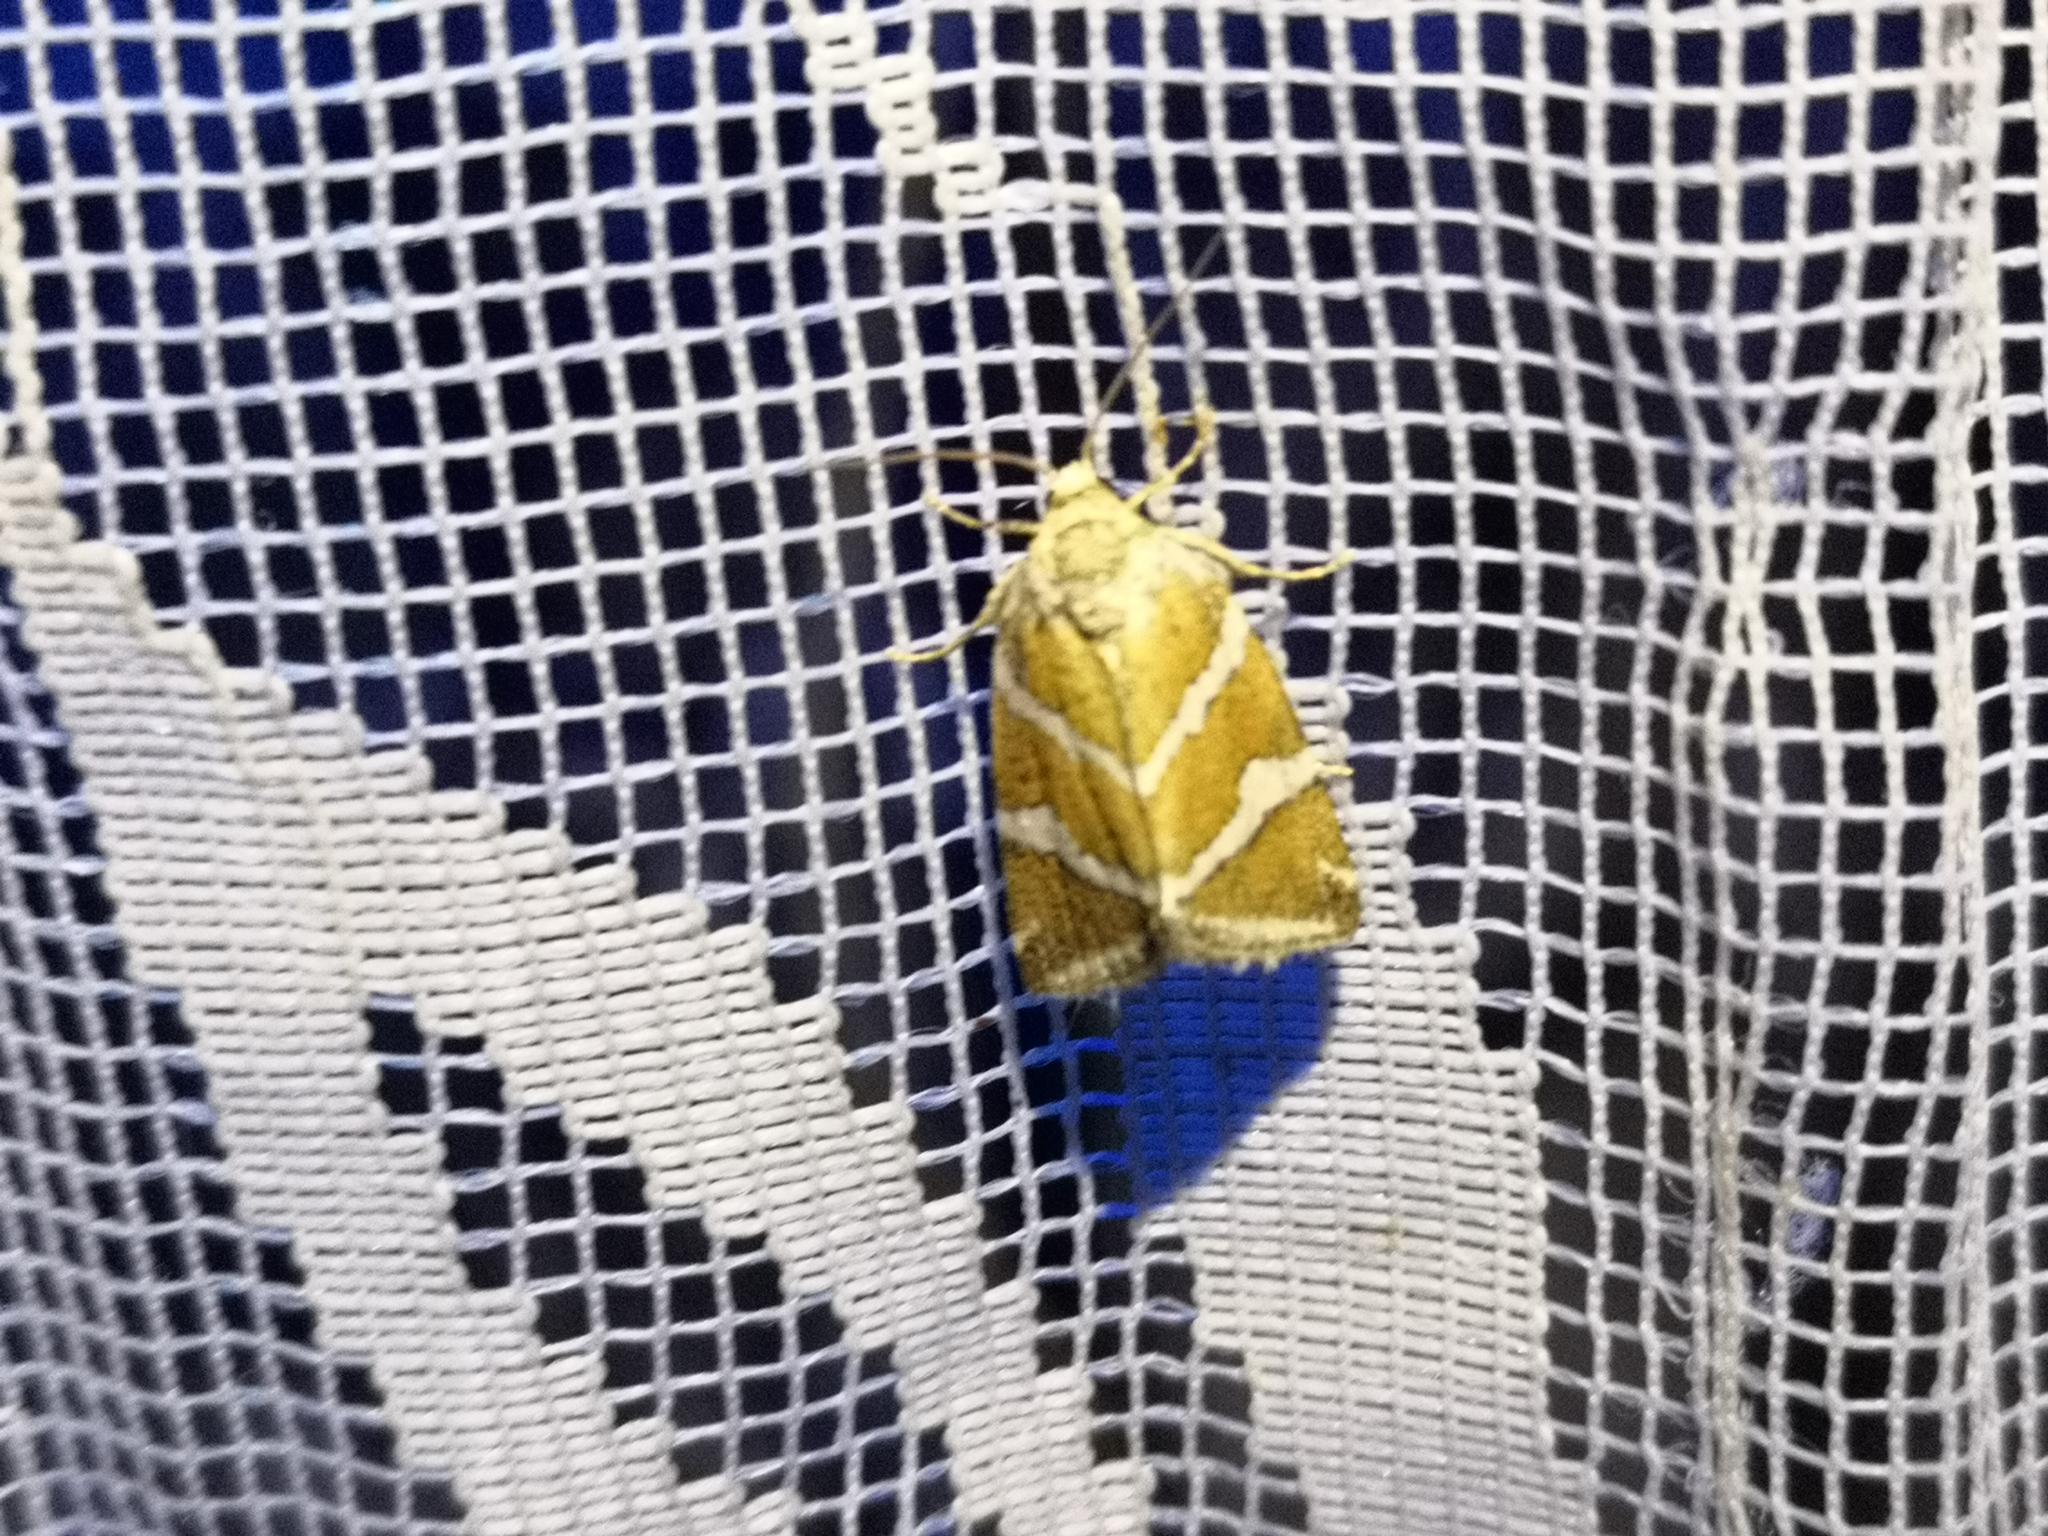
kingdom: Animalia
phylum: Arthropoda
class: Insecta
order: Lepidoptera
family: Noctuidae
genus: Deltote
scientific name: Deltote bankiana
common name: Silver barred
